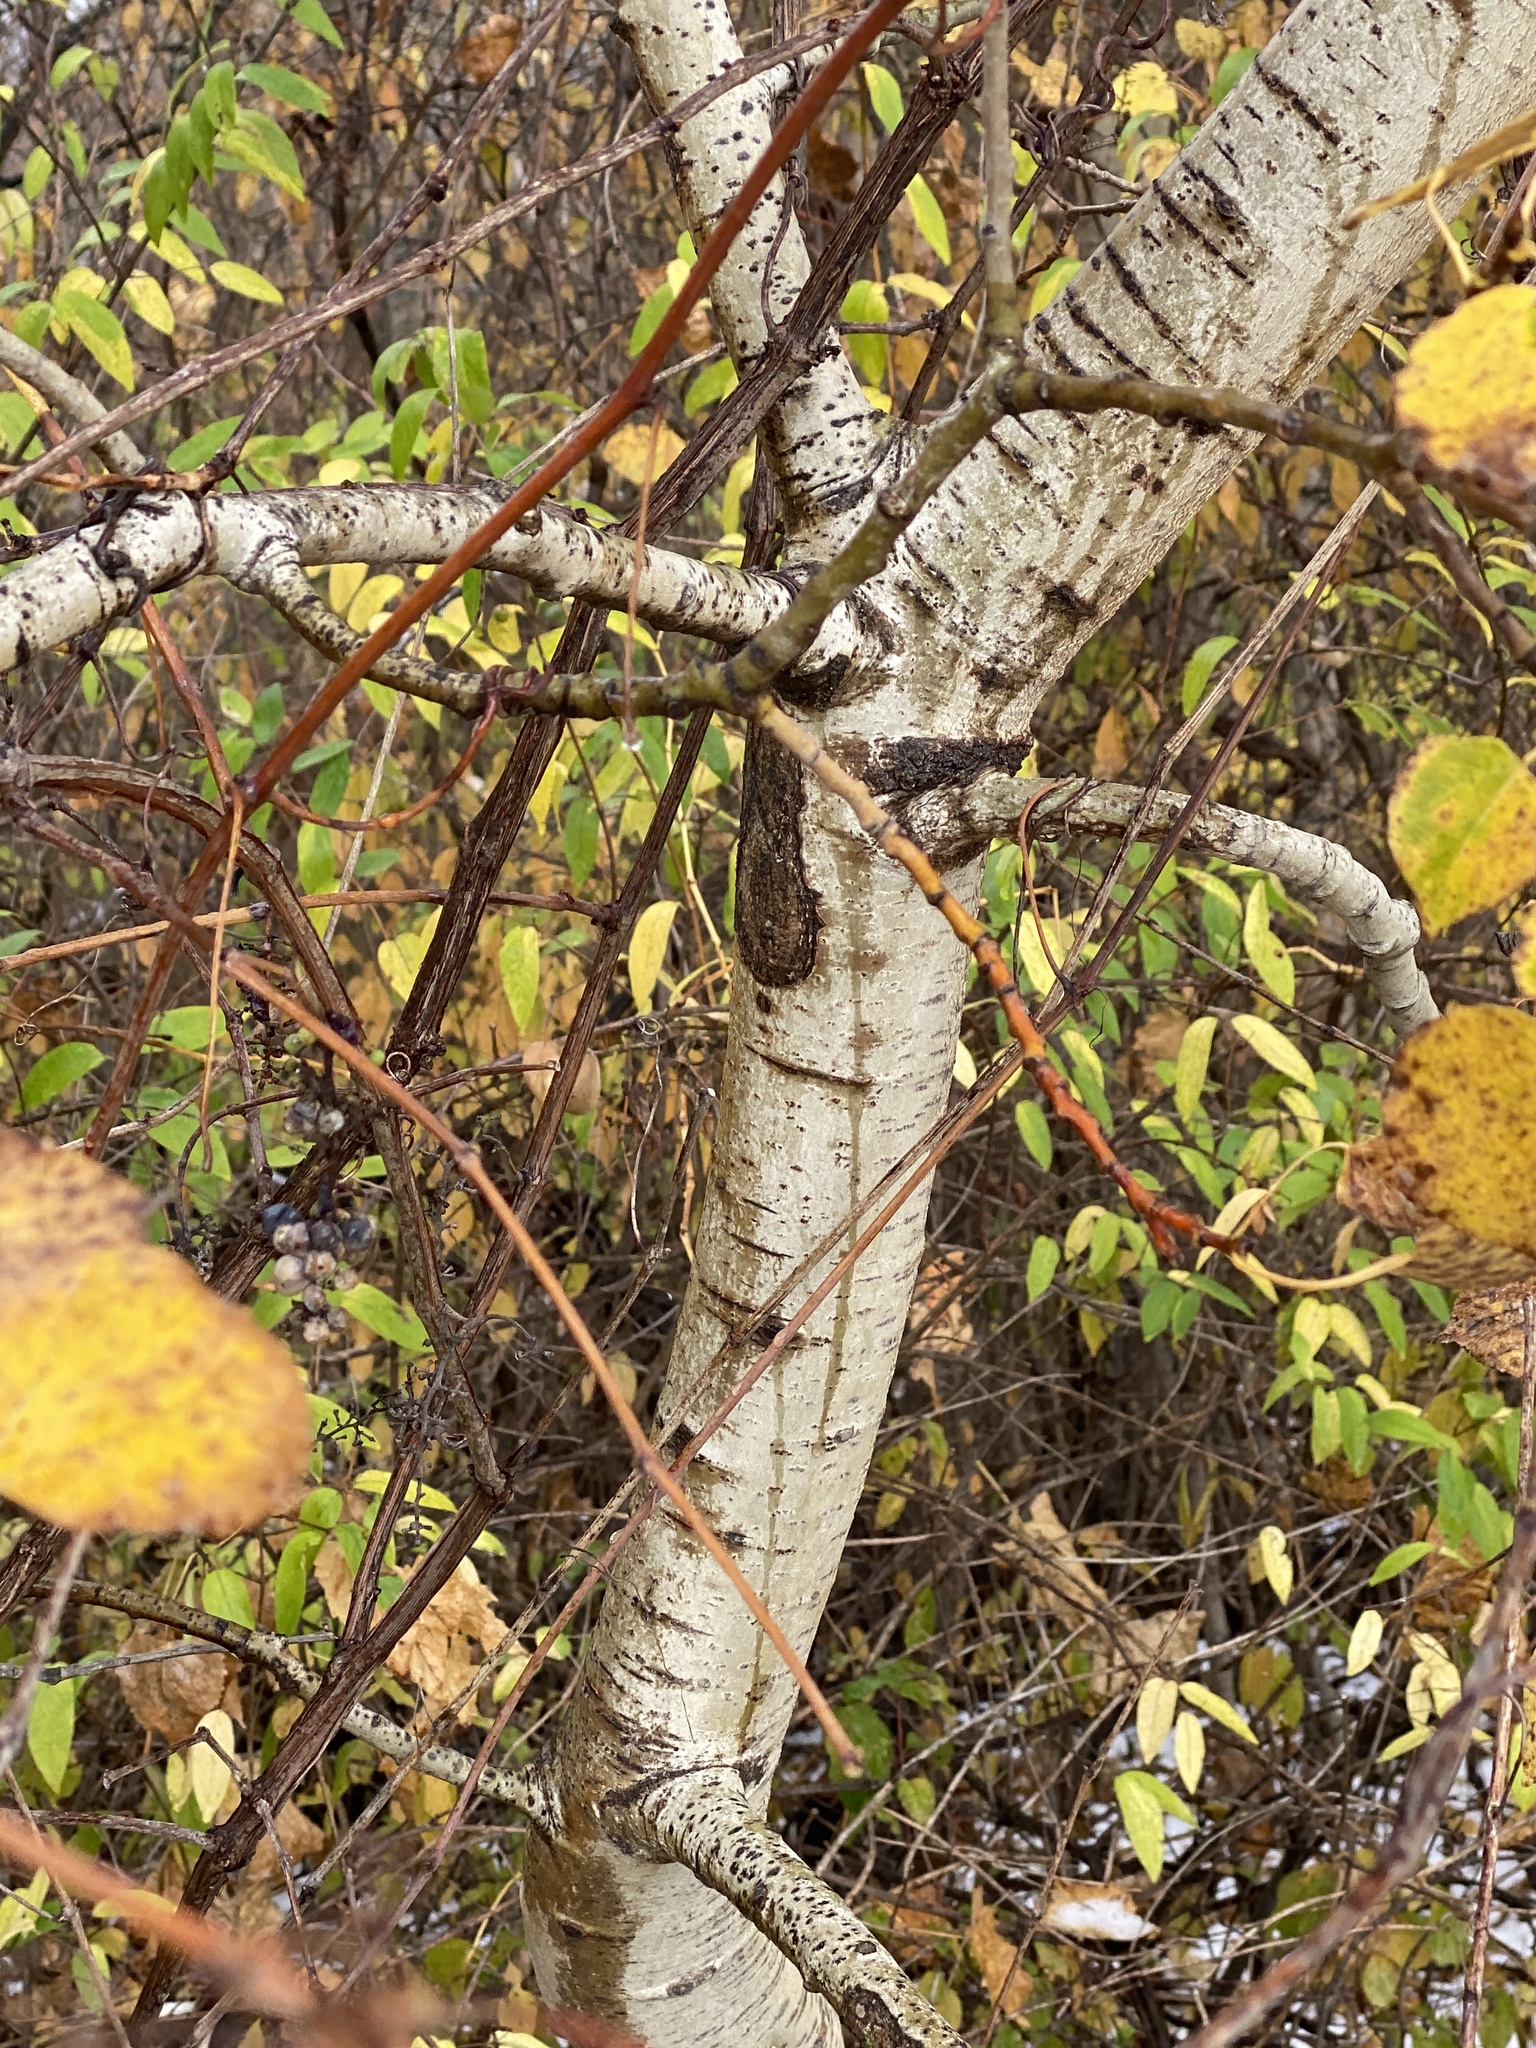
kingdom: Plantae
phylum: Tracheophyta
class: Magnoliopsida
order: Malpighiales
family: Salicaceae
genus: Populus
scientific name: Populus tremuloides
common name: Quaking aspen
